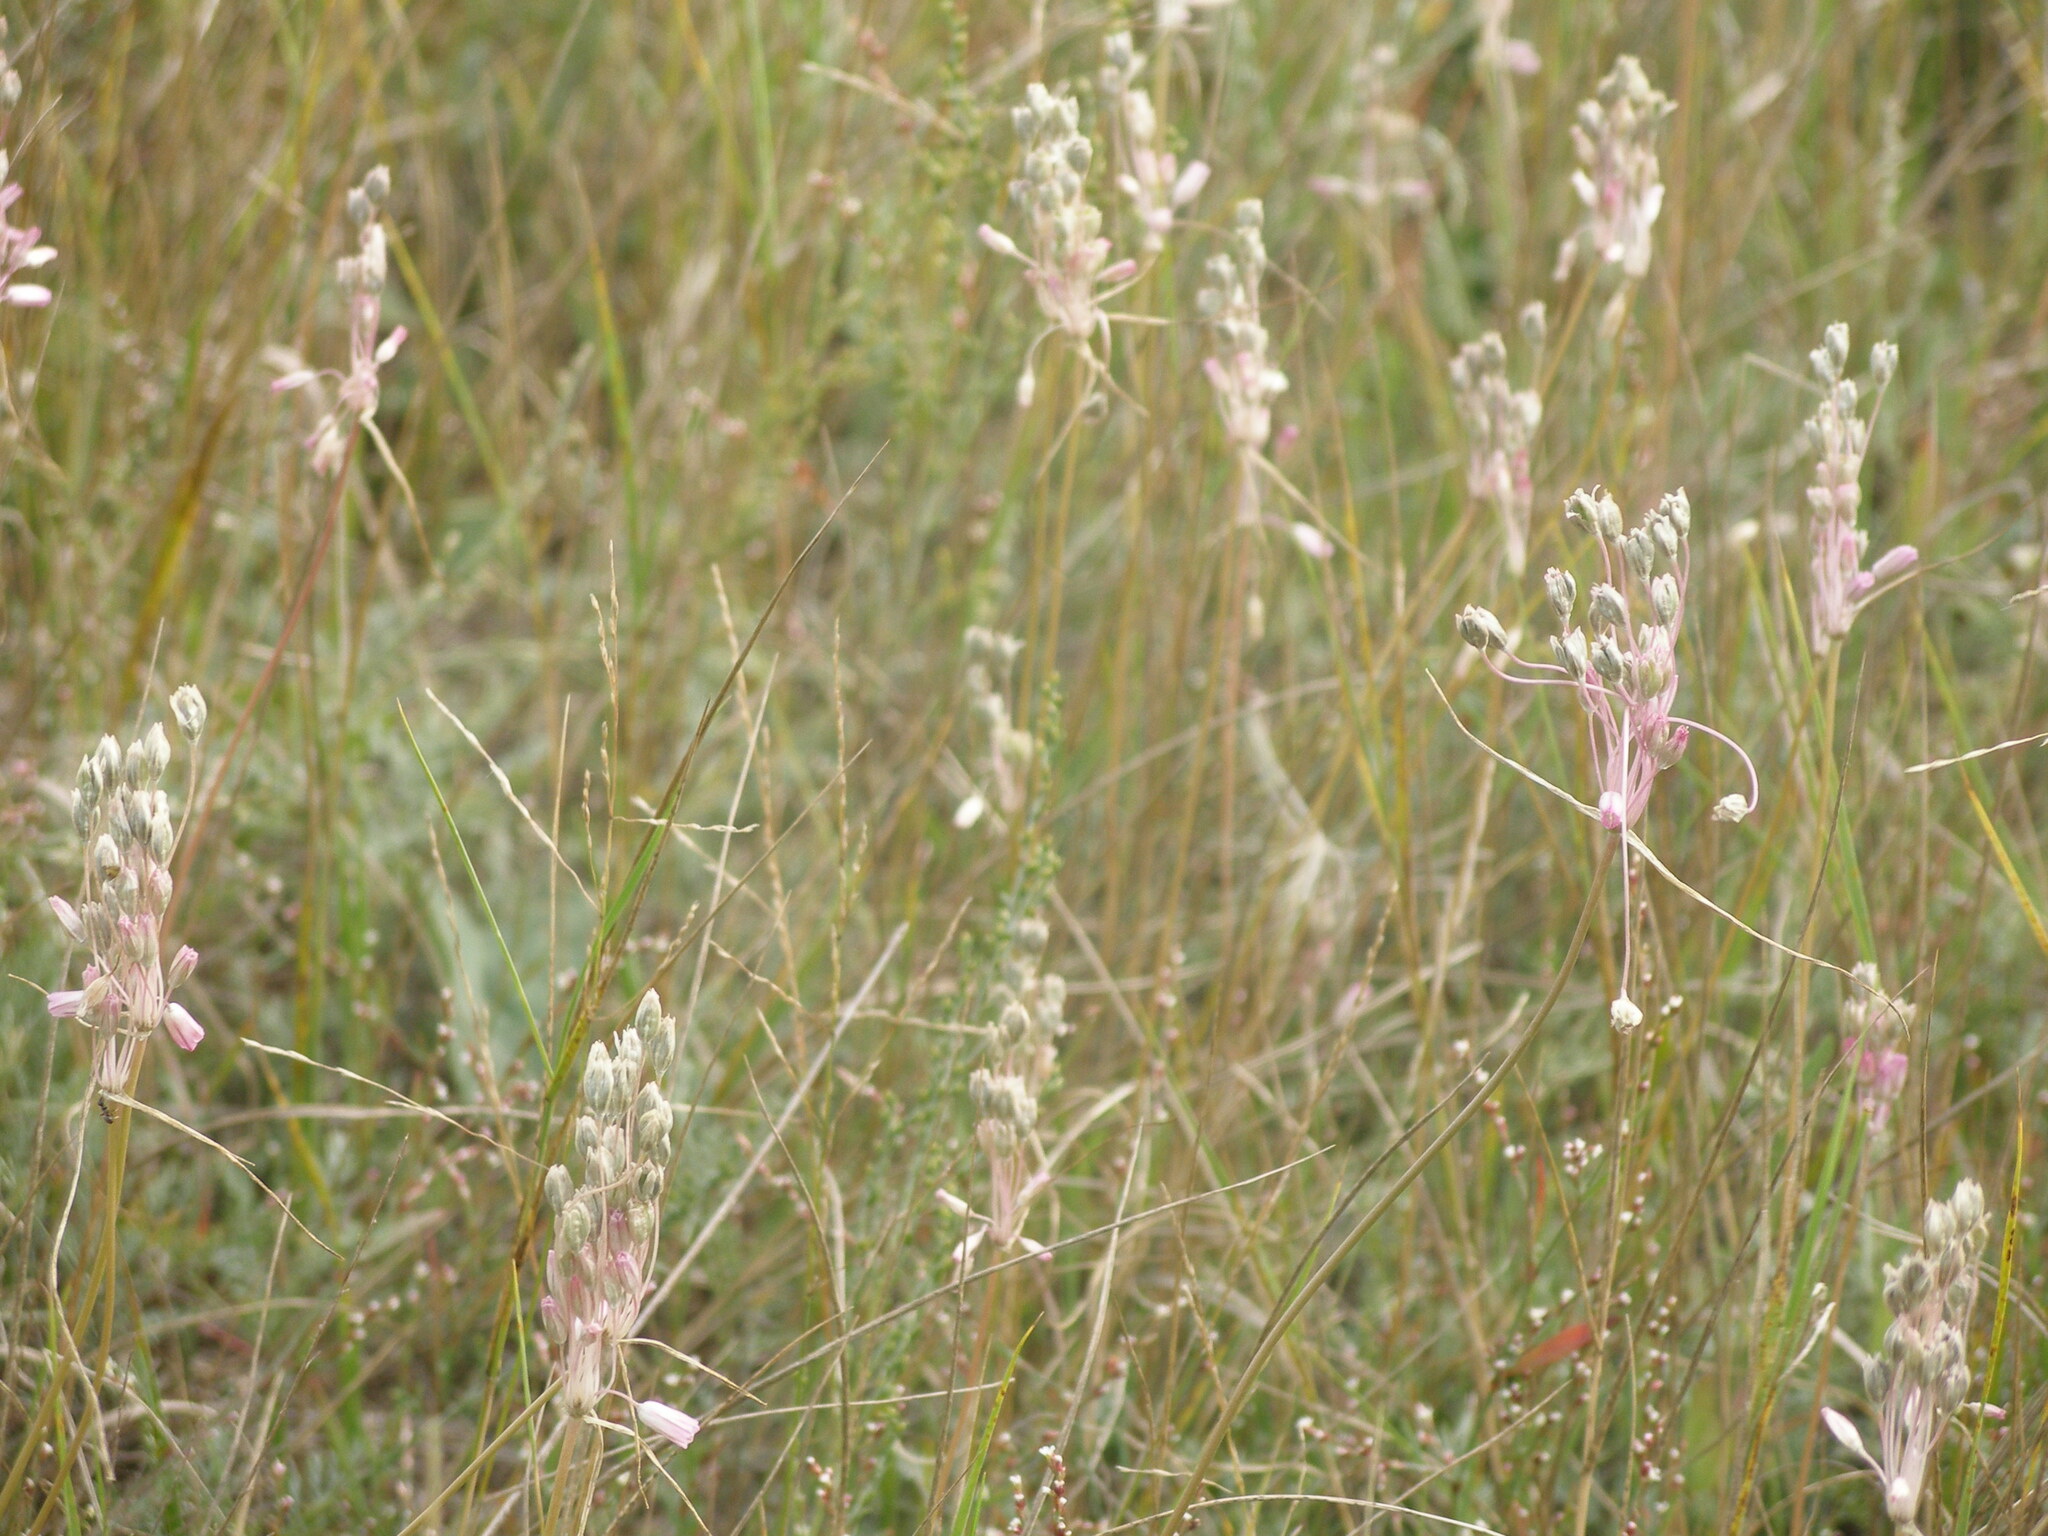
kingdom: Plantae
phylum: Tracheophyta
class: Liliopsida
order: Asparagales
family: Amaryllidaceae
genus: Allium
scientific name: Allium praescissum
